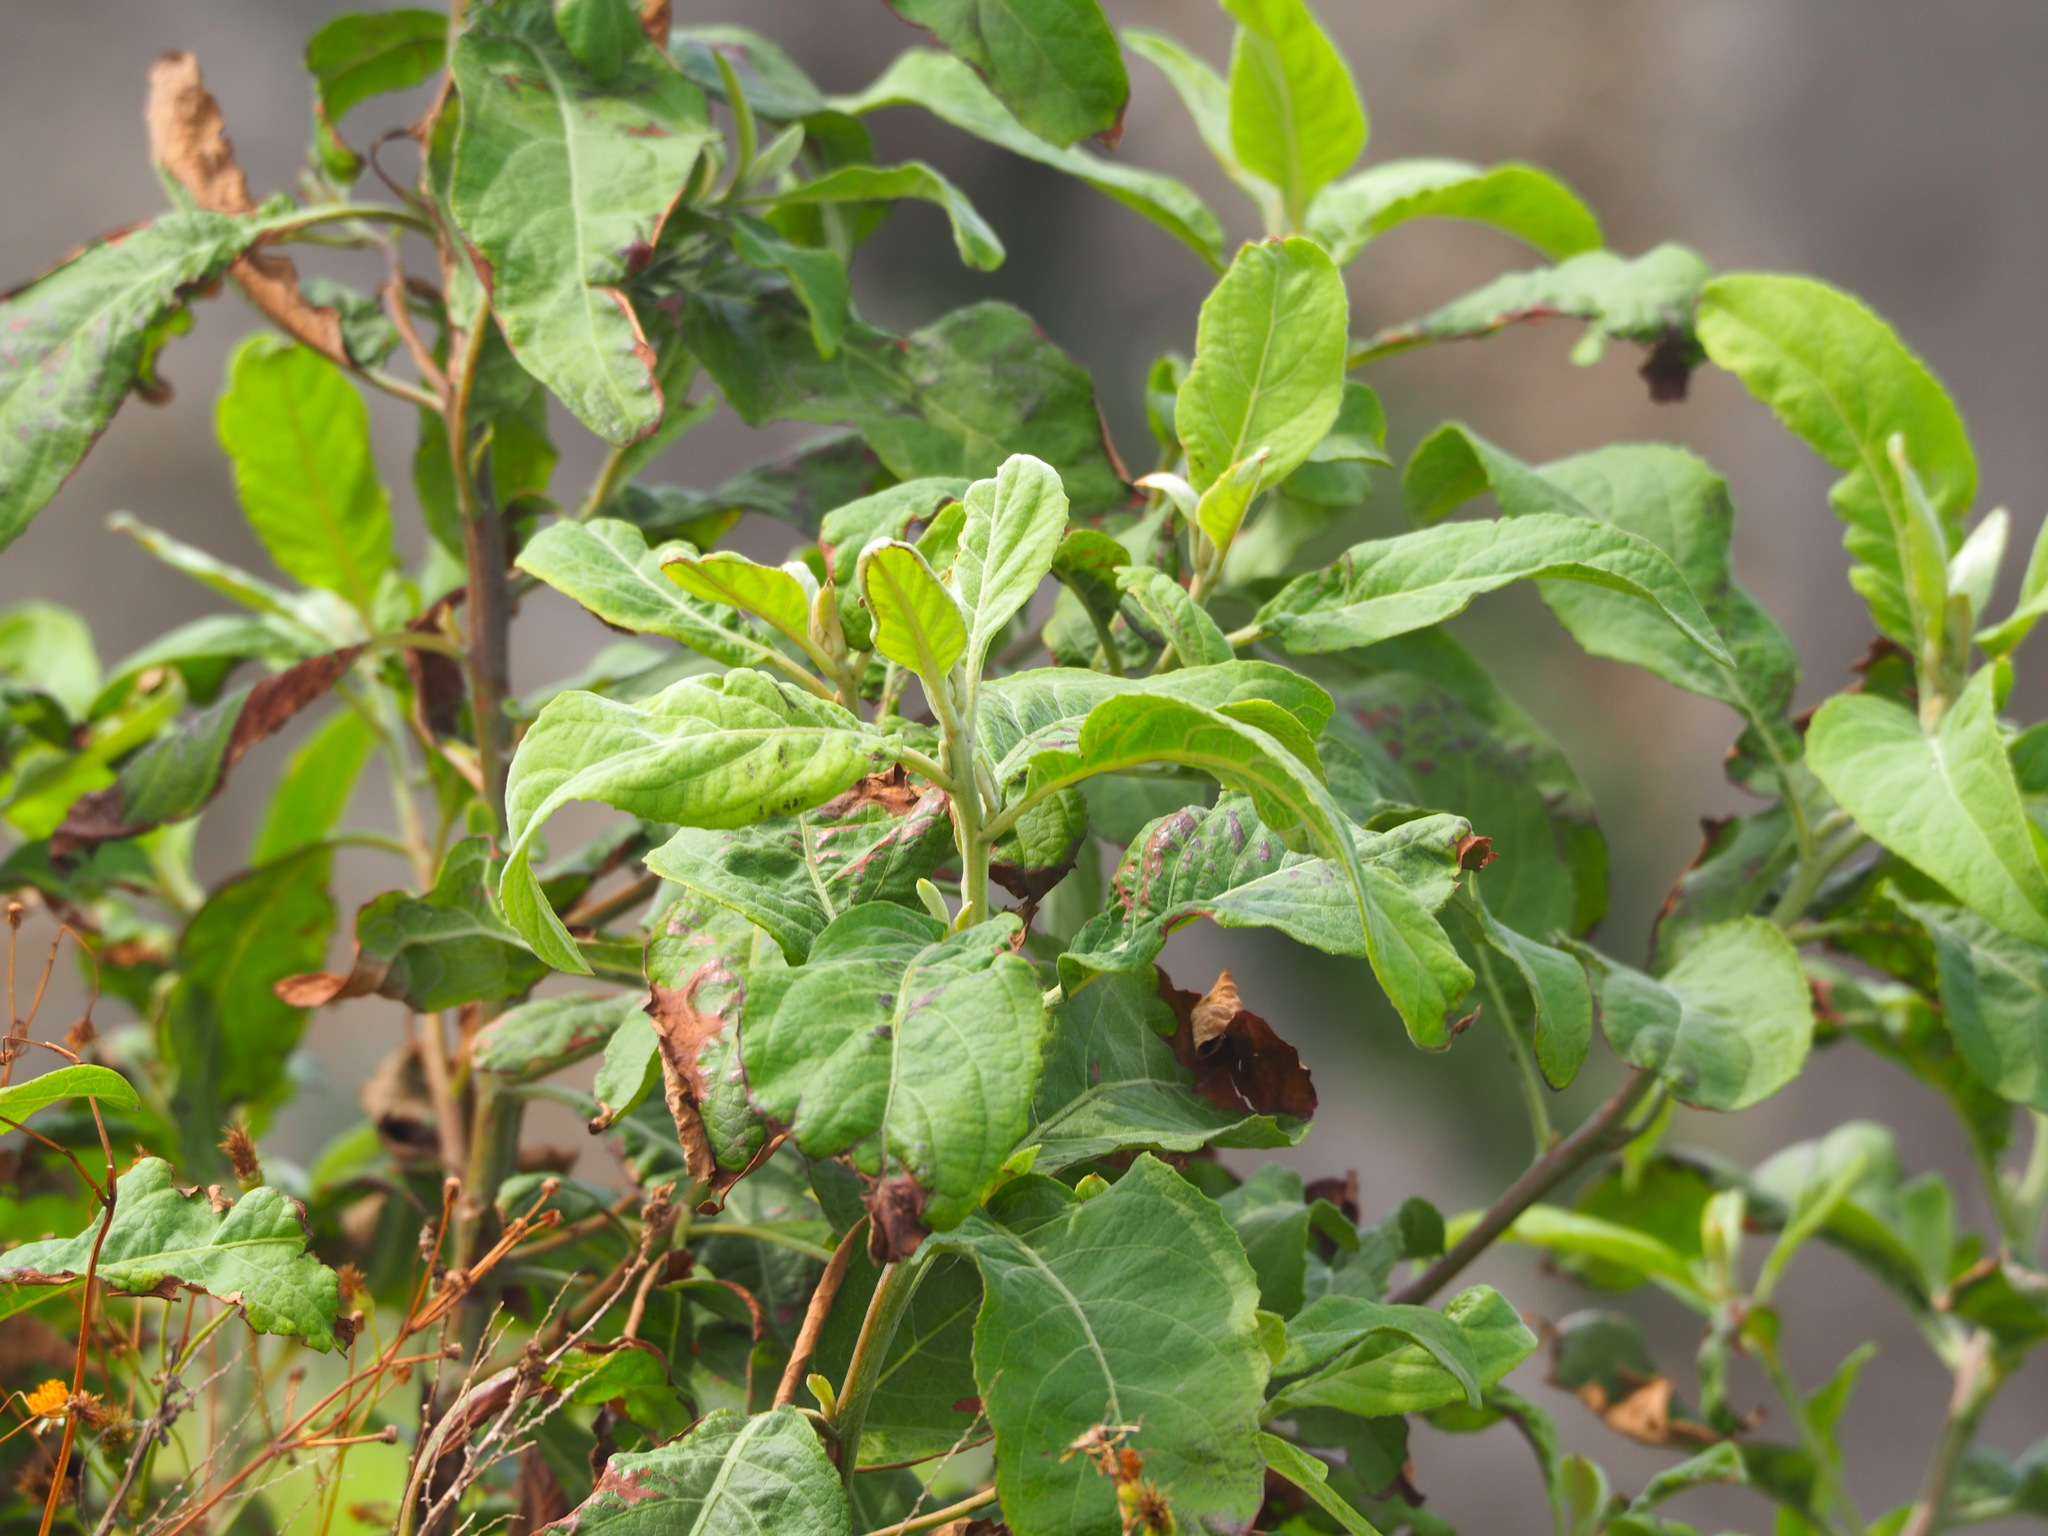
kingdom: Plantae
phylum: Tracheophyta
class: Magnoliopsida
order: Asterales
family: Asteraceae
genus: Pluchea
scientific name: Pluchea carolinensis
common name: Marsh fleabane
